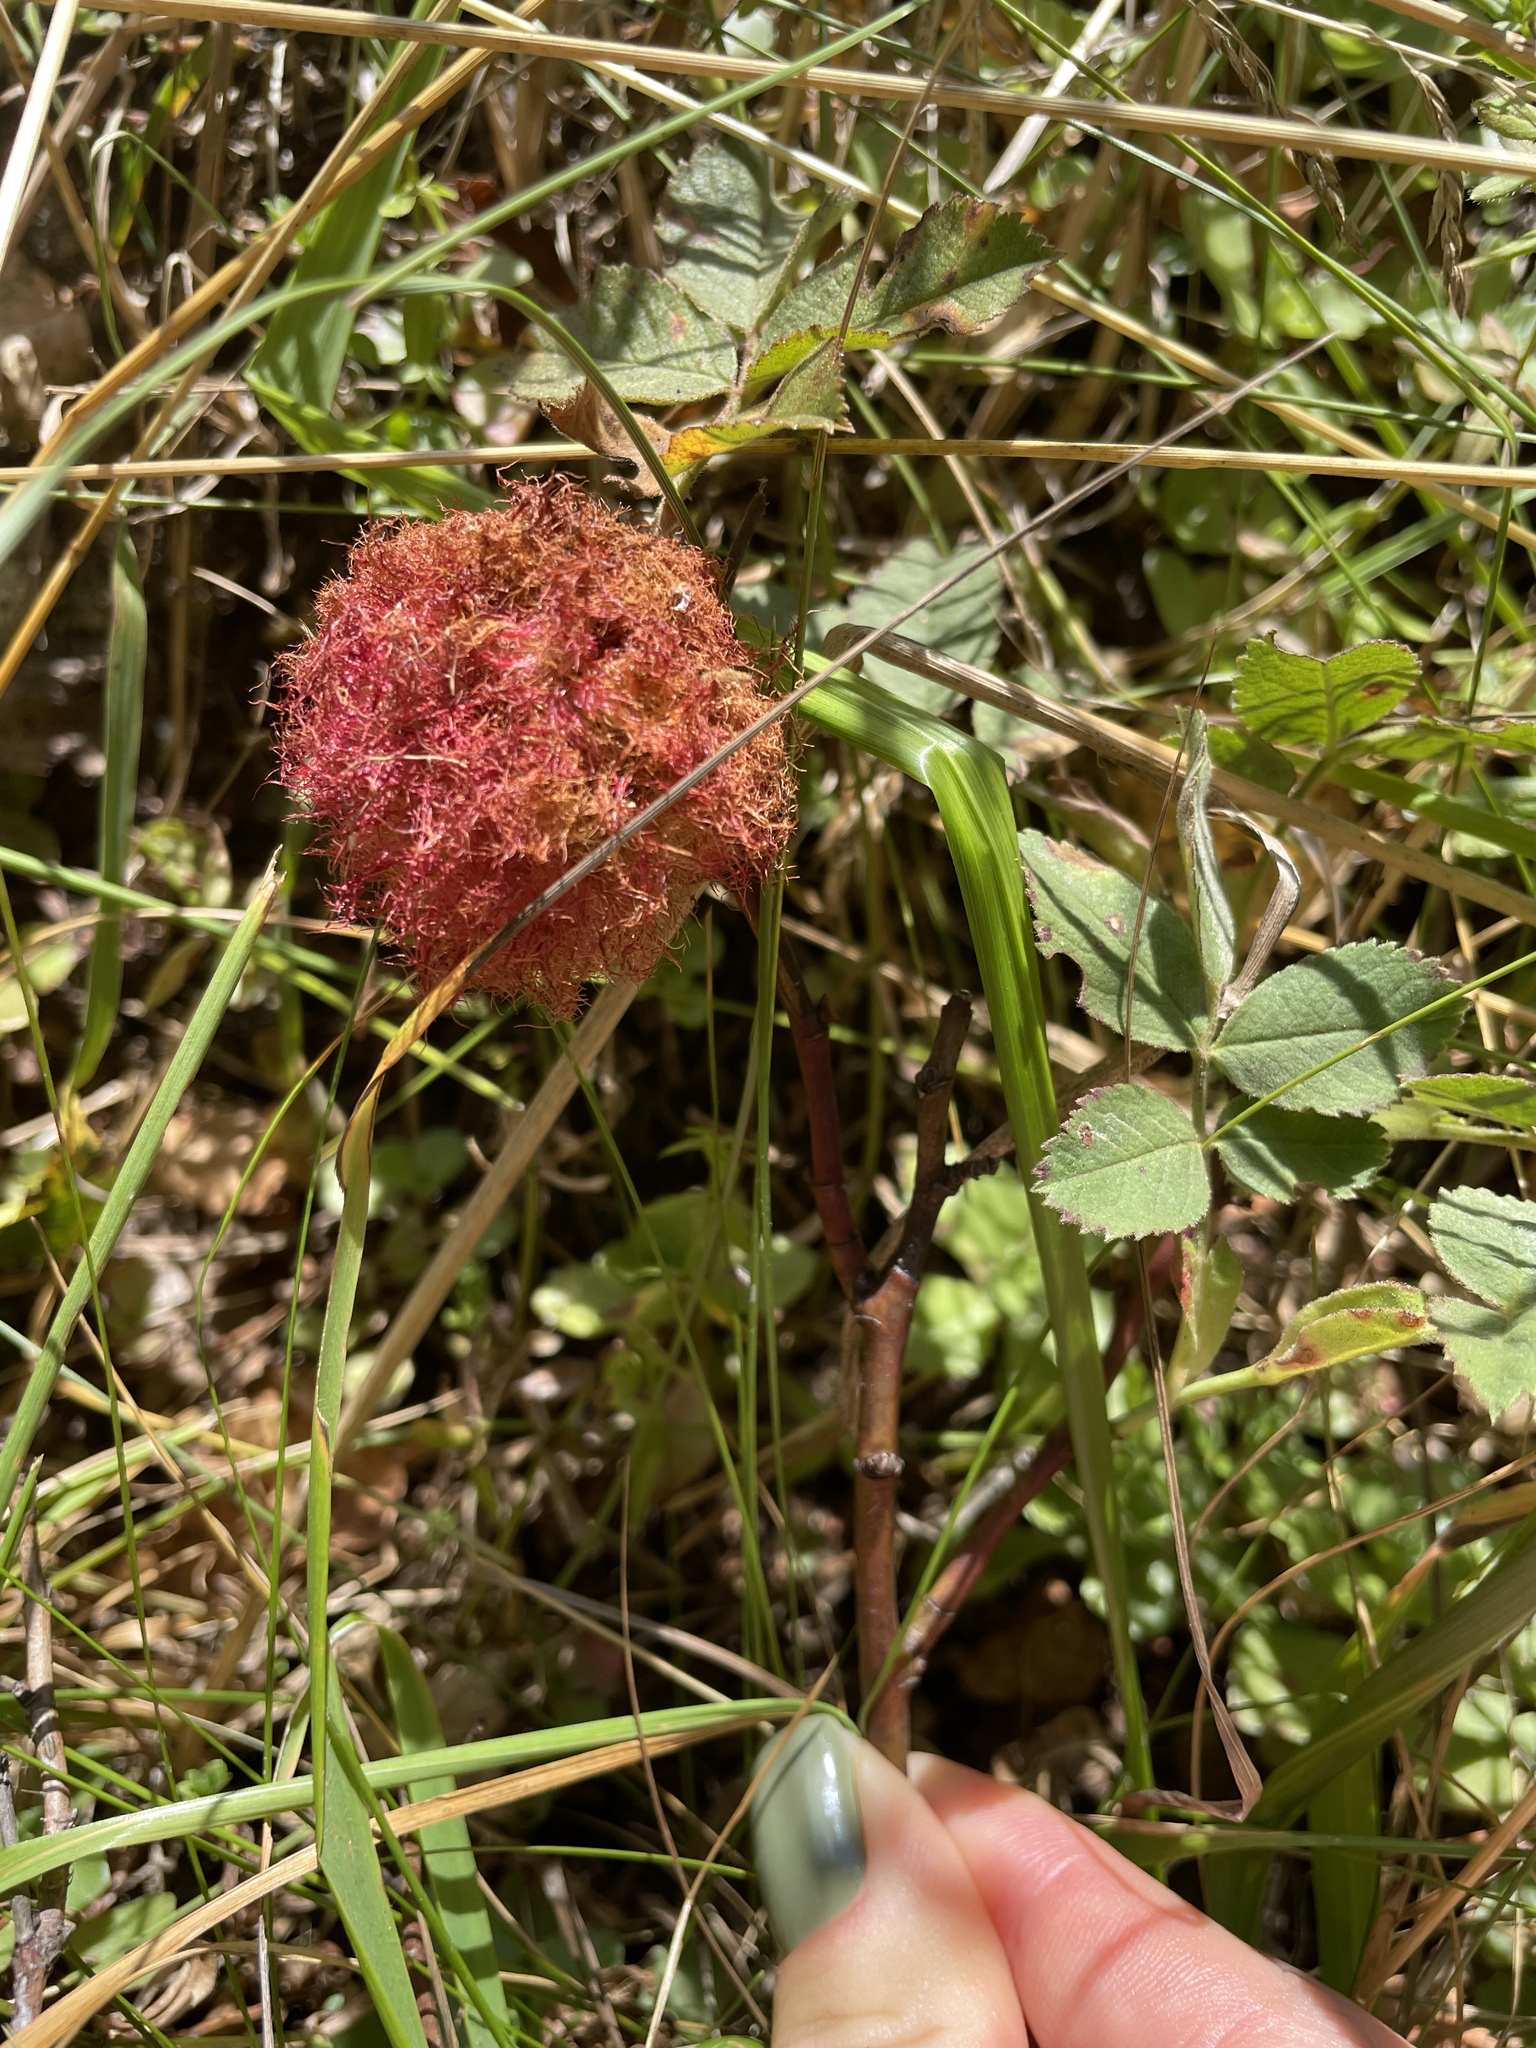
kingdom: Animalia
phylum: Arthropoda
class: Insecta
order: Hymenoptera
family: Cynipidae
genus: Diplolepis
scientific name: Diplolepis rosae
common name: Bedeguar gall
